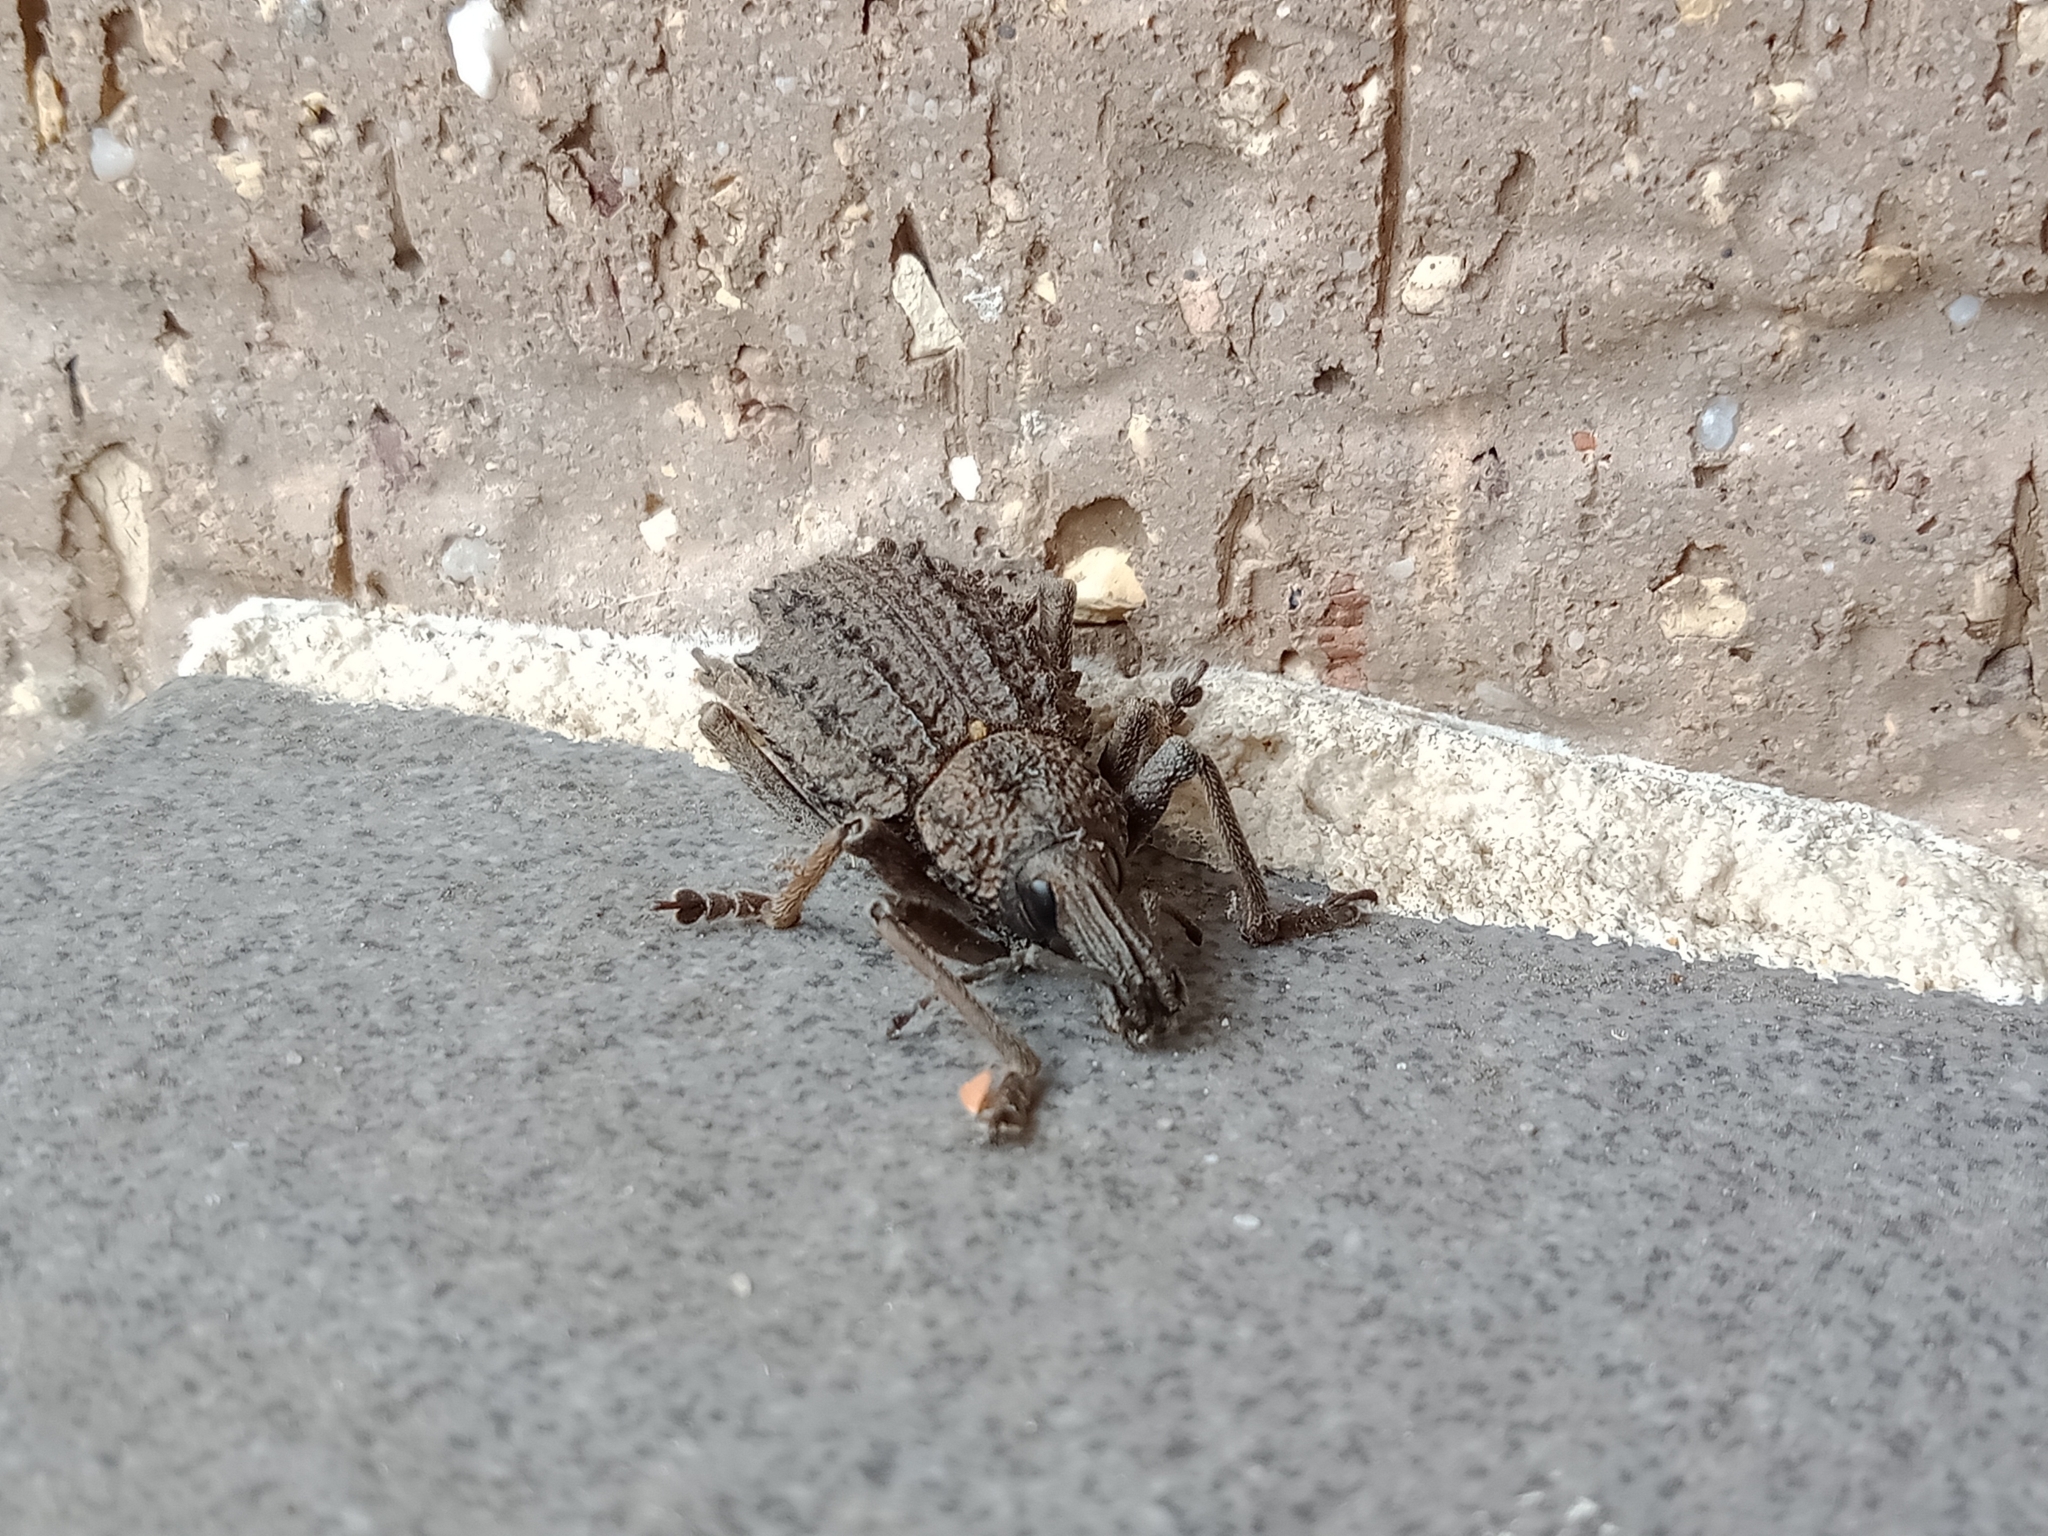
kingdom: Animalia
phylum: Arthropoda
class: Insecta
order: Coleoptera
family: Curculionidae
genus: Leptopius
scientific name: Leptopius duponti
